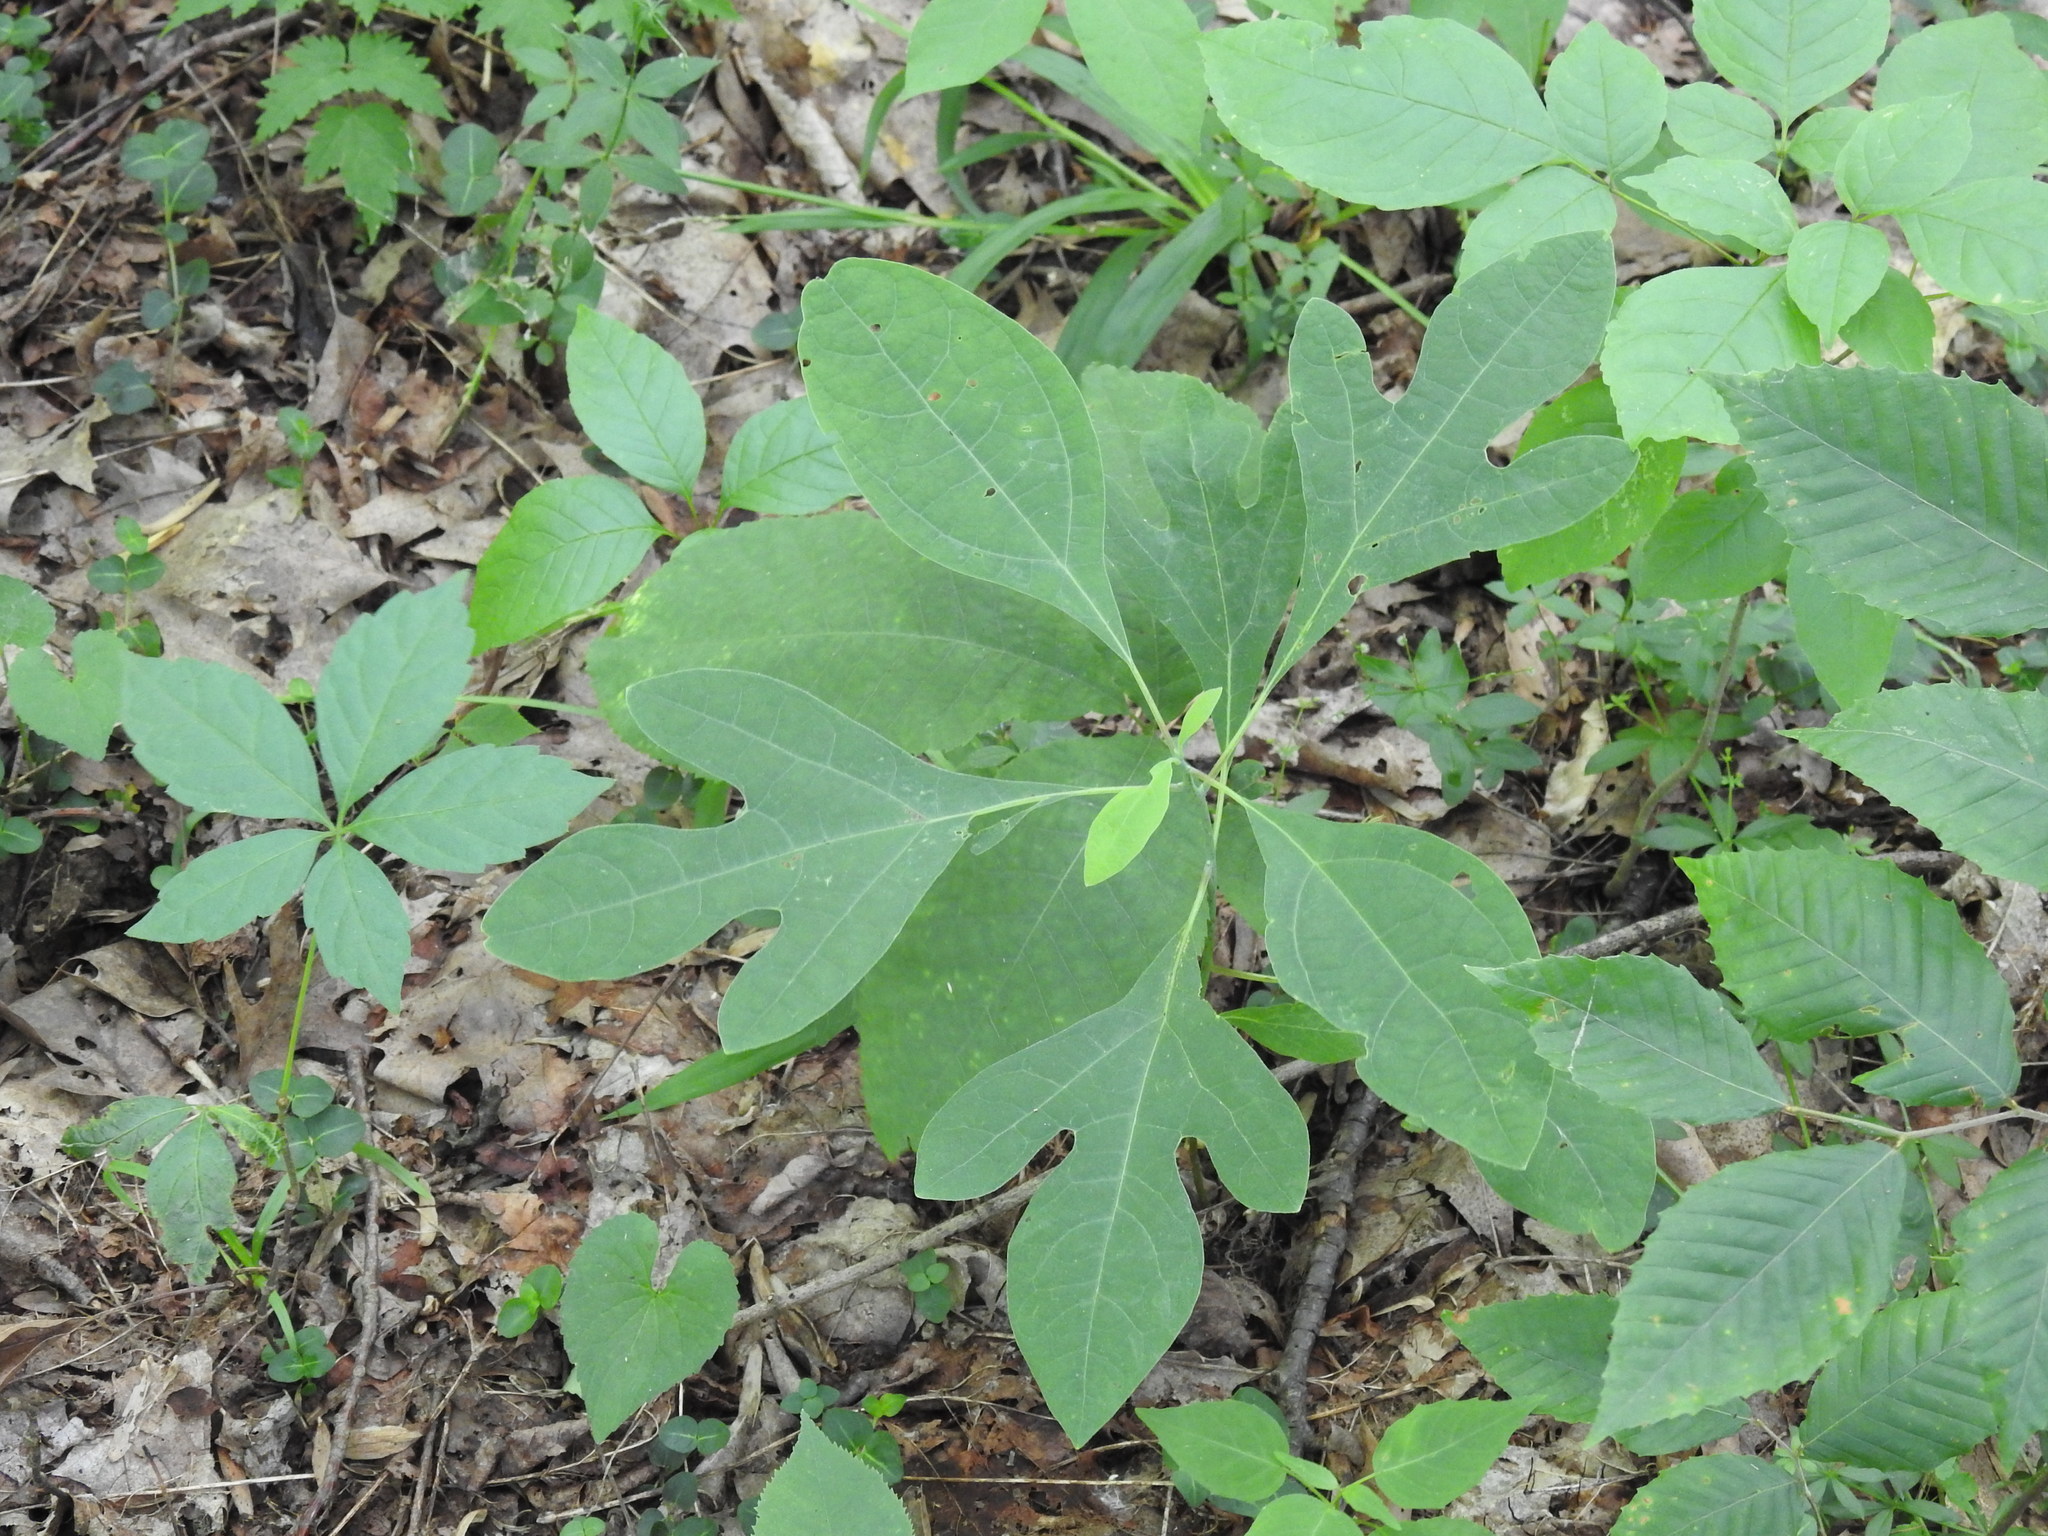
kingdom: Plantae
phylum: Tracheophyta
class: Magnoliopsida
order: Laurales
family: Lauraceae
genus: Sassafras
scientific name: Sassafras albidum
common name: Sassafras
